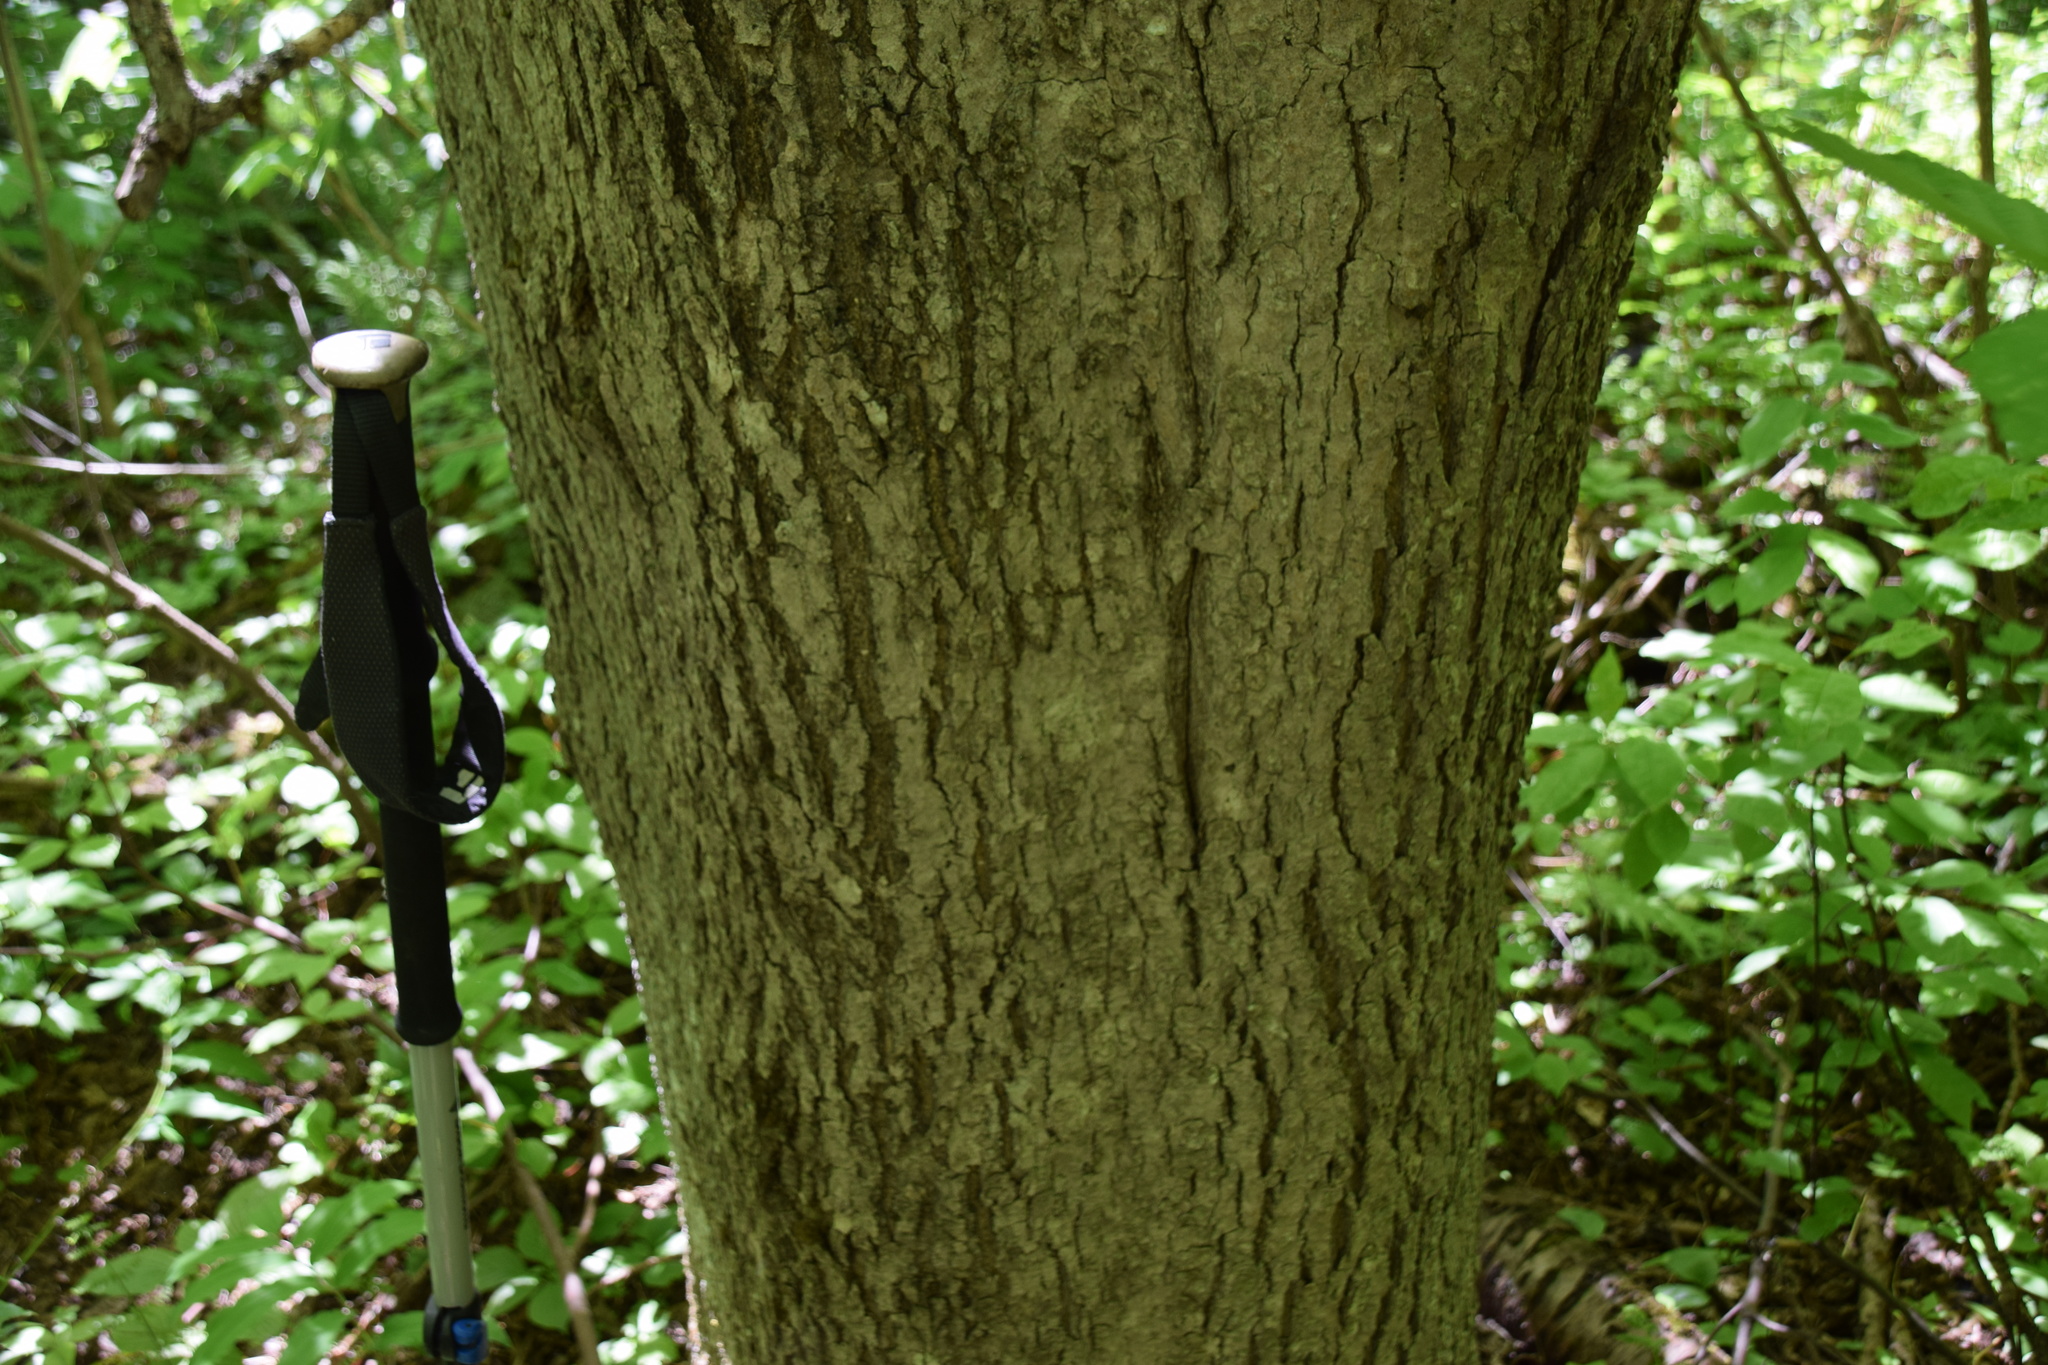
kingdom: Plantae
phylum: Tracheophyta
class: Magnoliopsida
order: Lamiales
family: Oleaceae
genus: Fraxinus
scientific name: Fraxinus nigra
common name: Black ash
